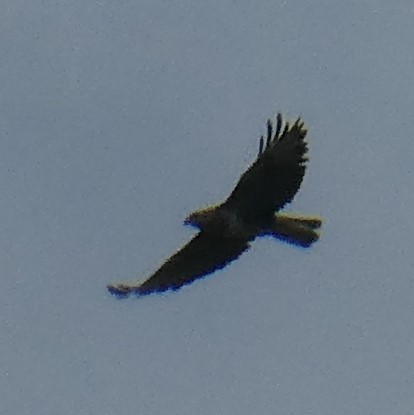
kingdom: Animalia
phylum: Chordata
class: Aves
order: Accipitriformes
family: Accipitridae
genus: Buteo
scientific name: Buteo buteo
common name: Common buzzard
